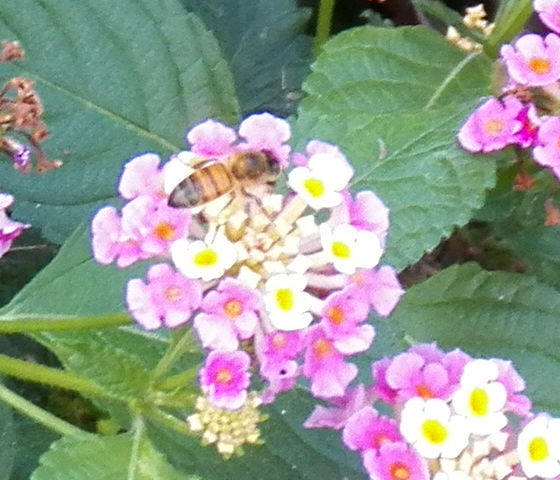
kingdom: Animalia
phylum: Arthropoda
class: Insecta
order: Hymenoptera
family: Apidae
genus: Apis
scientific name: Apis mellifera
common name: Honey bee
